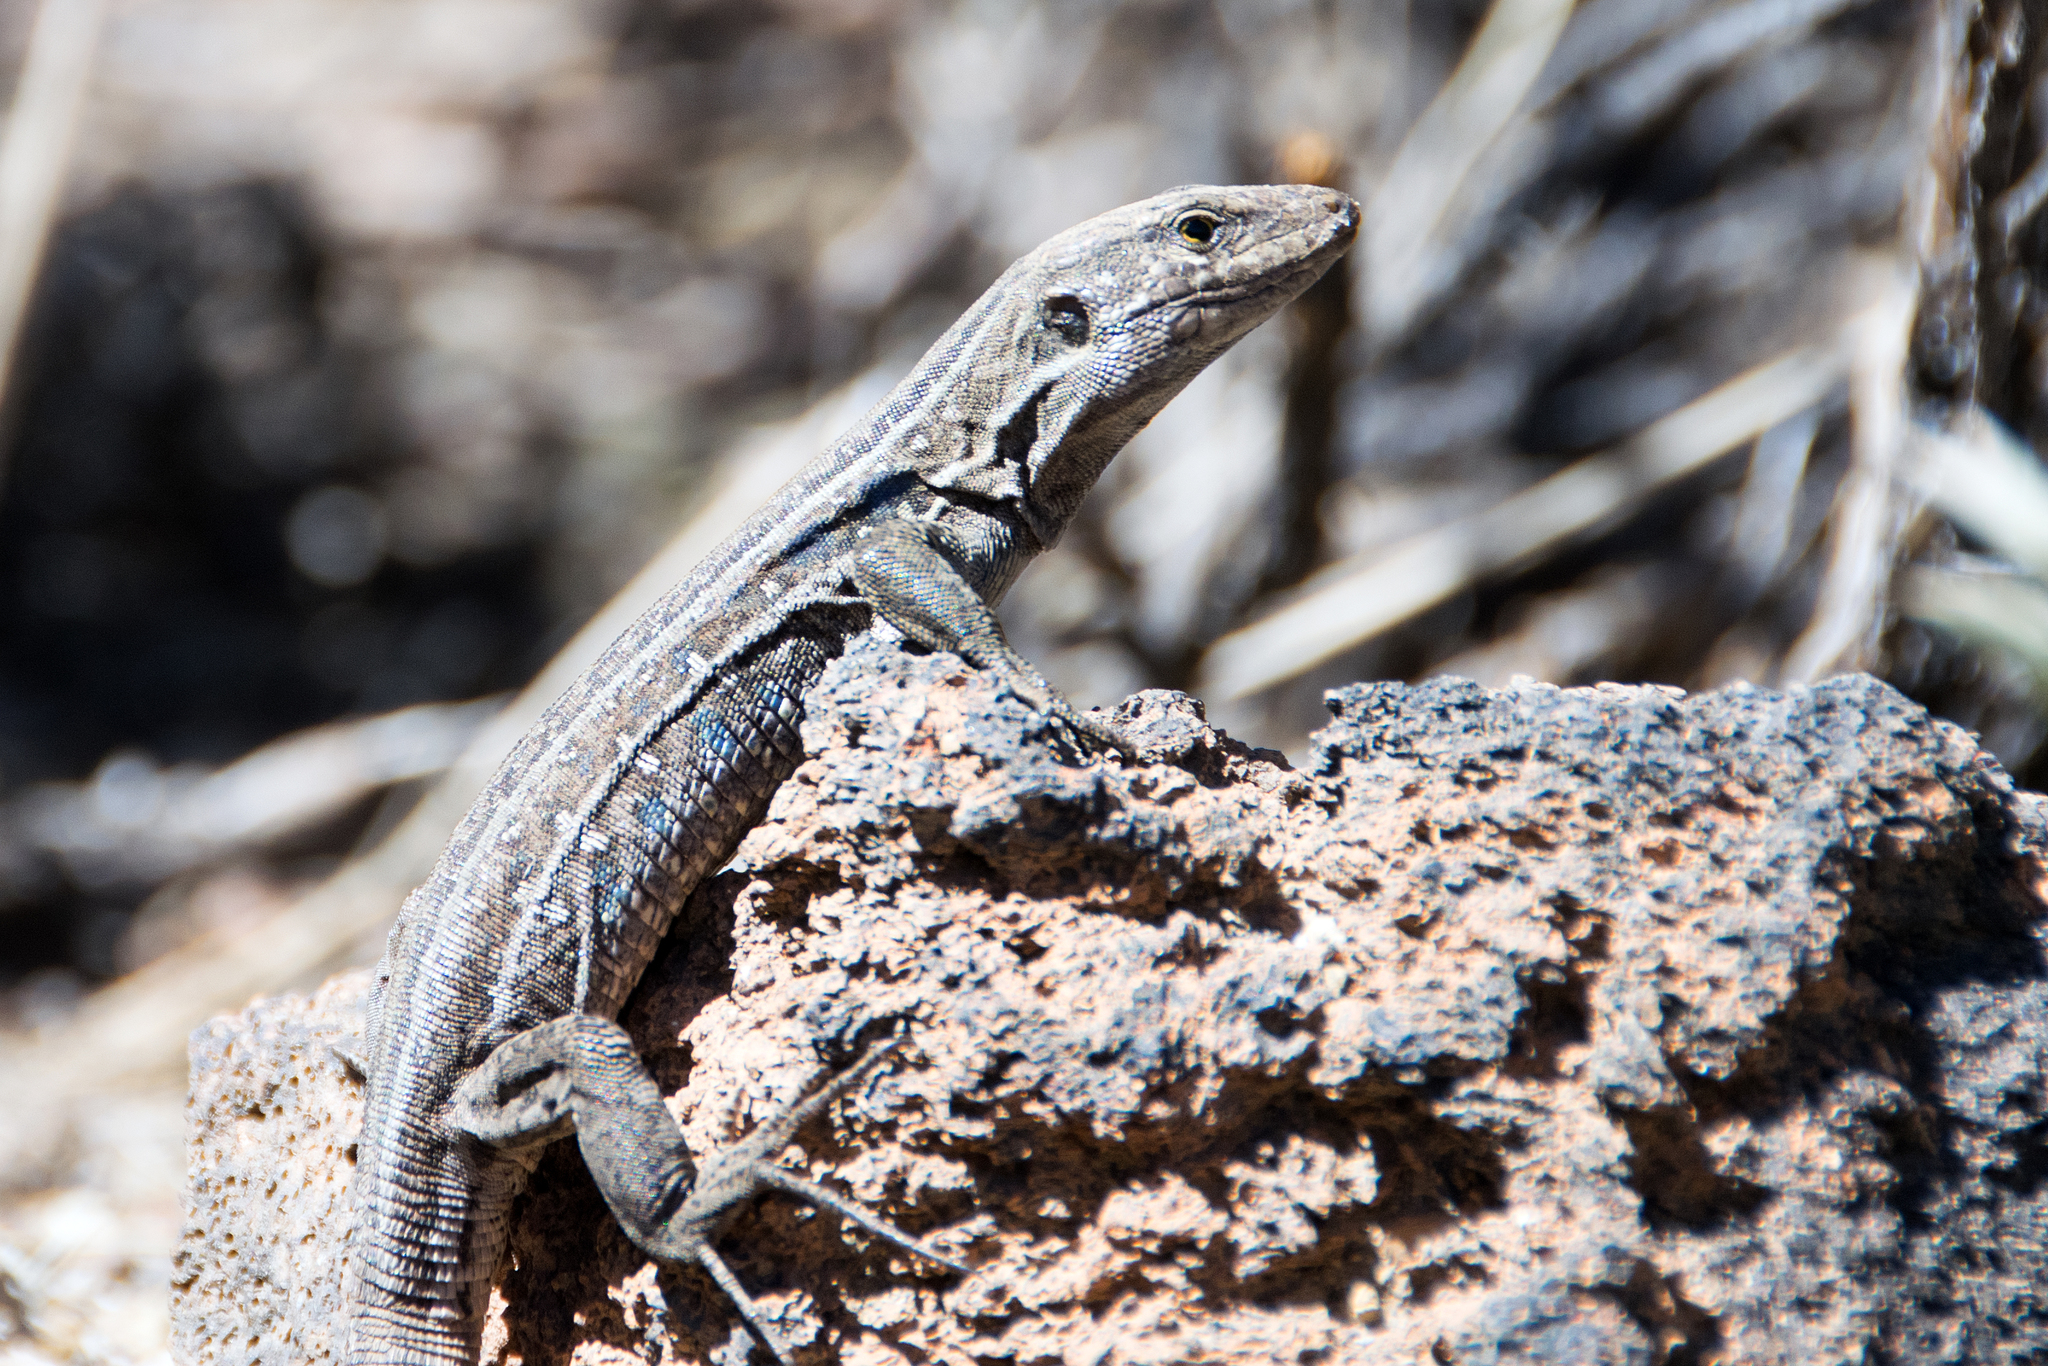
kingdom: Animalia
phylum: Chordata
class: Squamata
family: Lacertidae
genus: Gallotia
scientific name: Gallotia galloti
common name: Gallot's lizard
